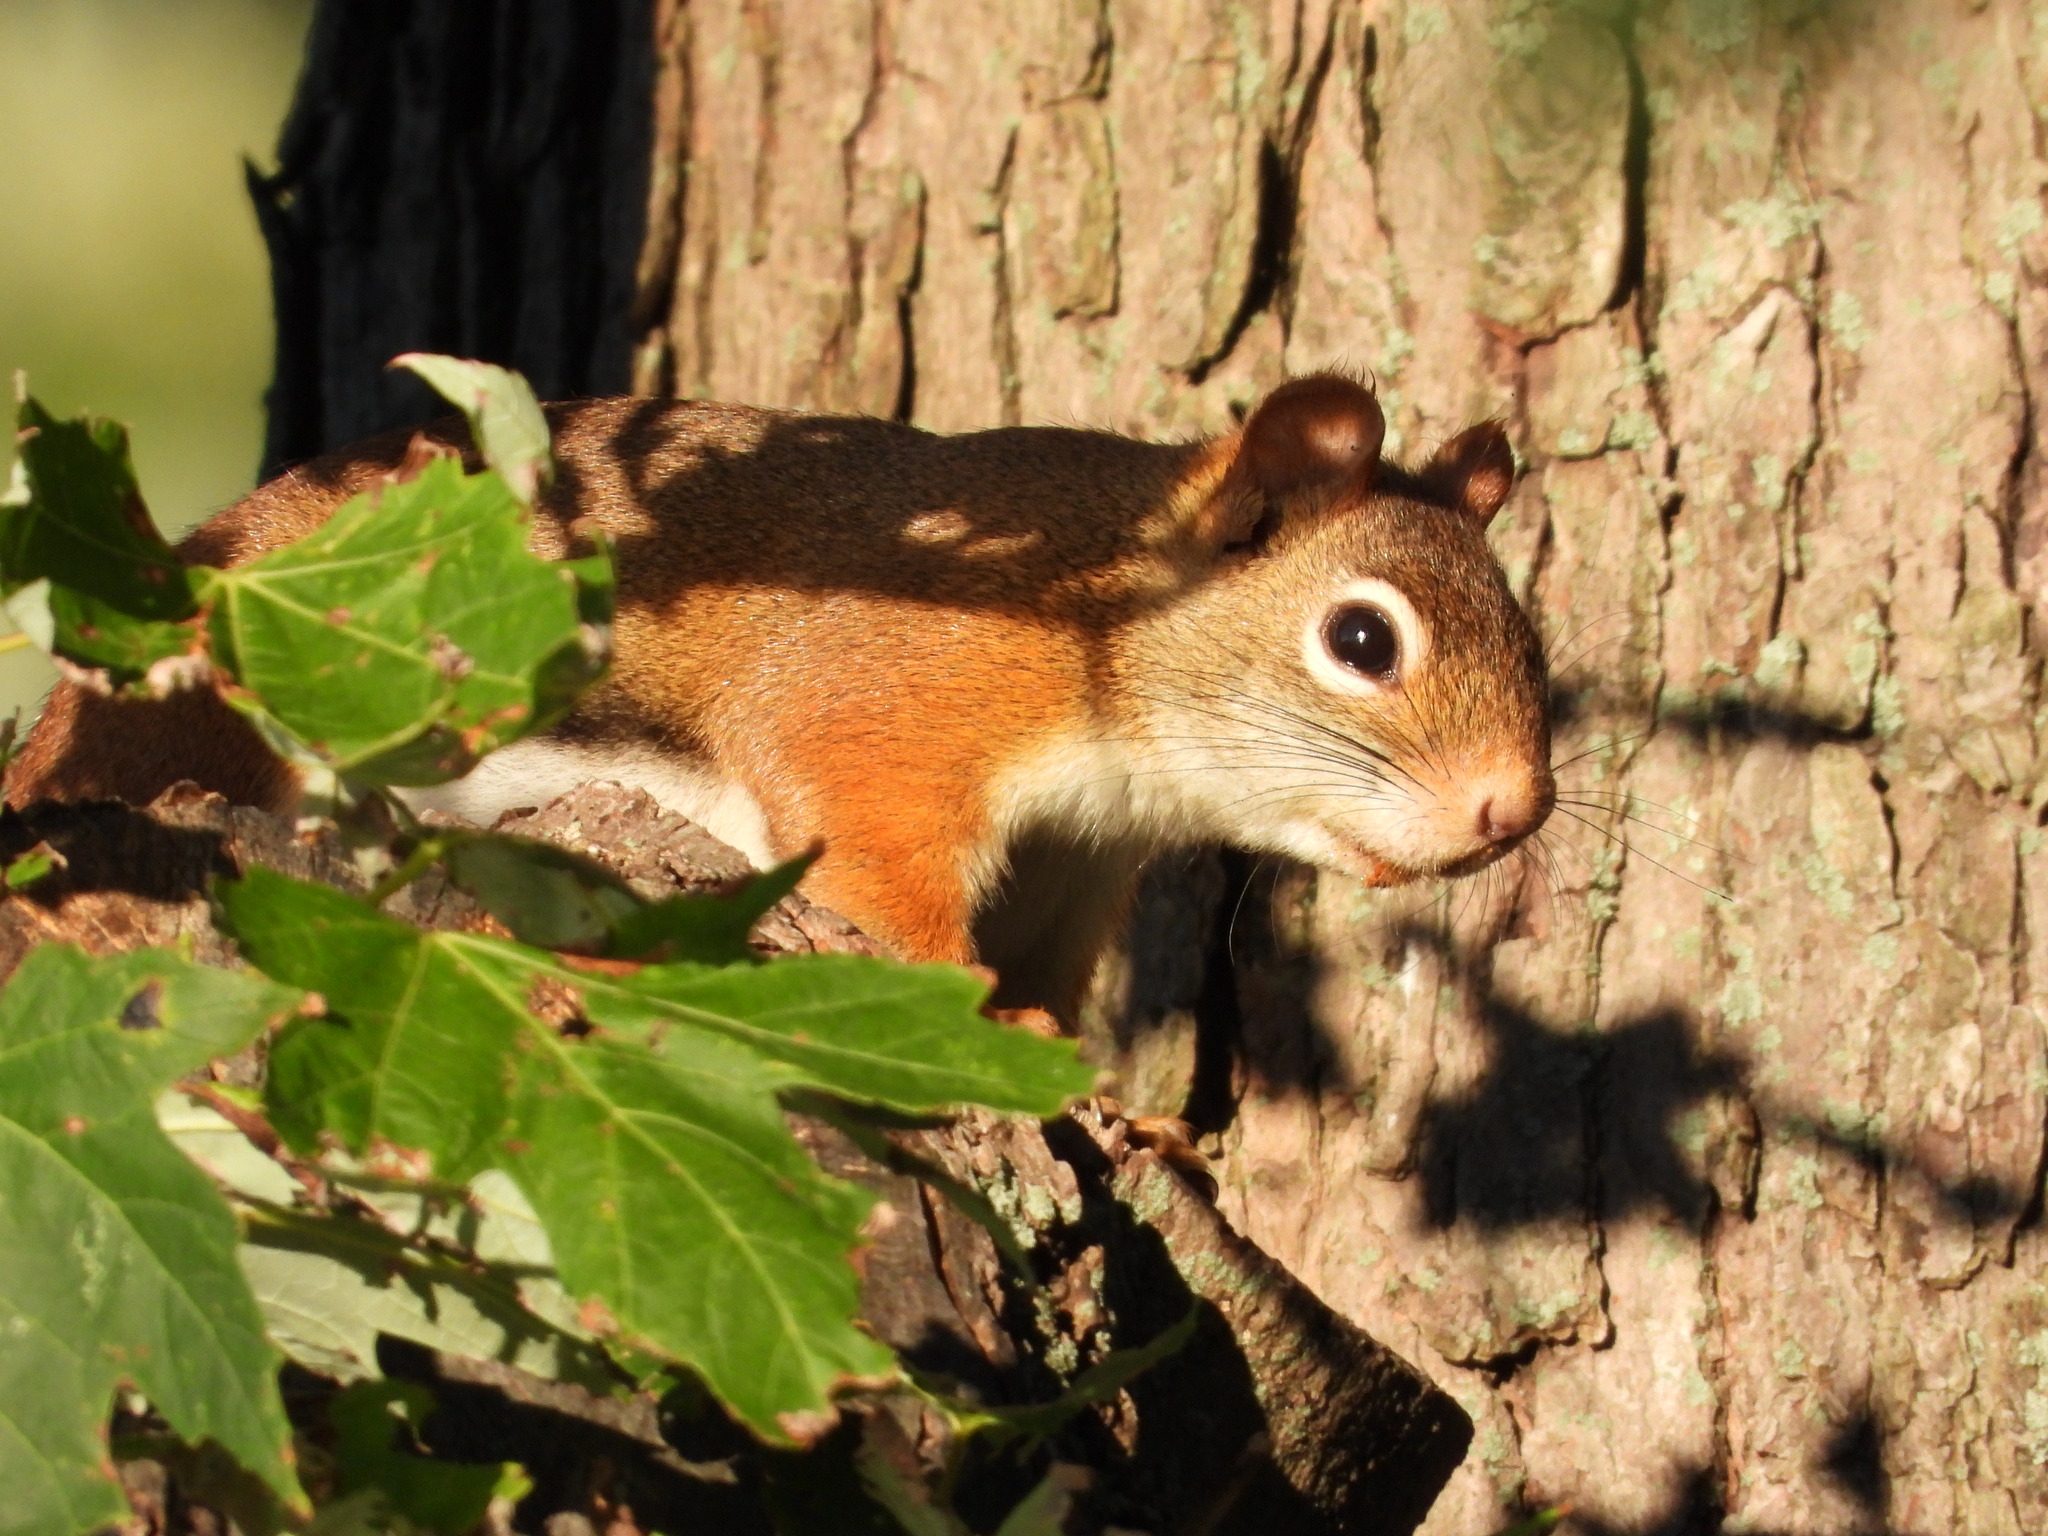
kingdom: Animalia
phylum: Chordata
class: Mammalia
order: Rodentia
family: Sciuridae
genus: Tamiasciurus
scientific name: Tamiasciurus hudsonicus
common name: Red squirrel
